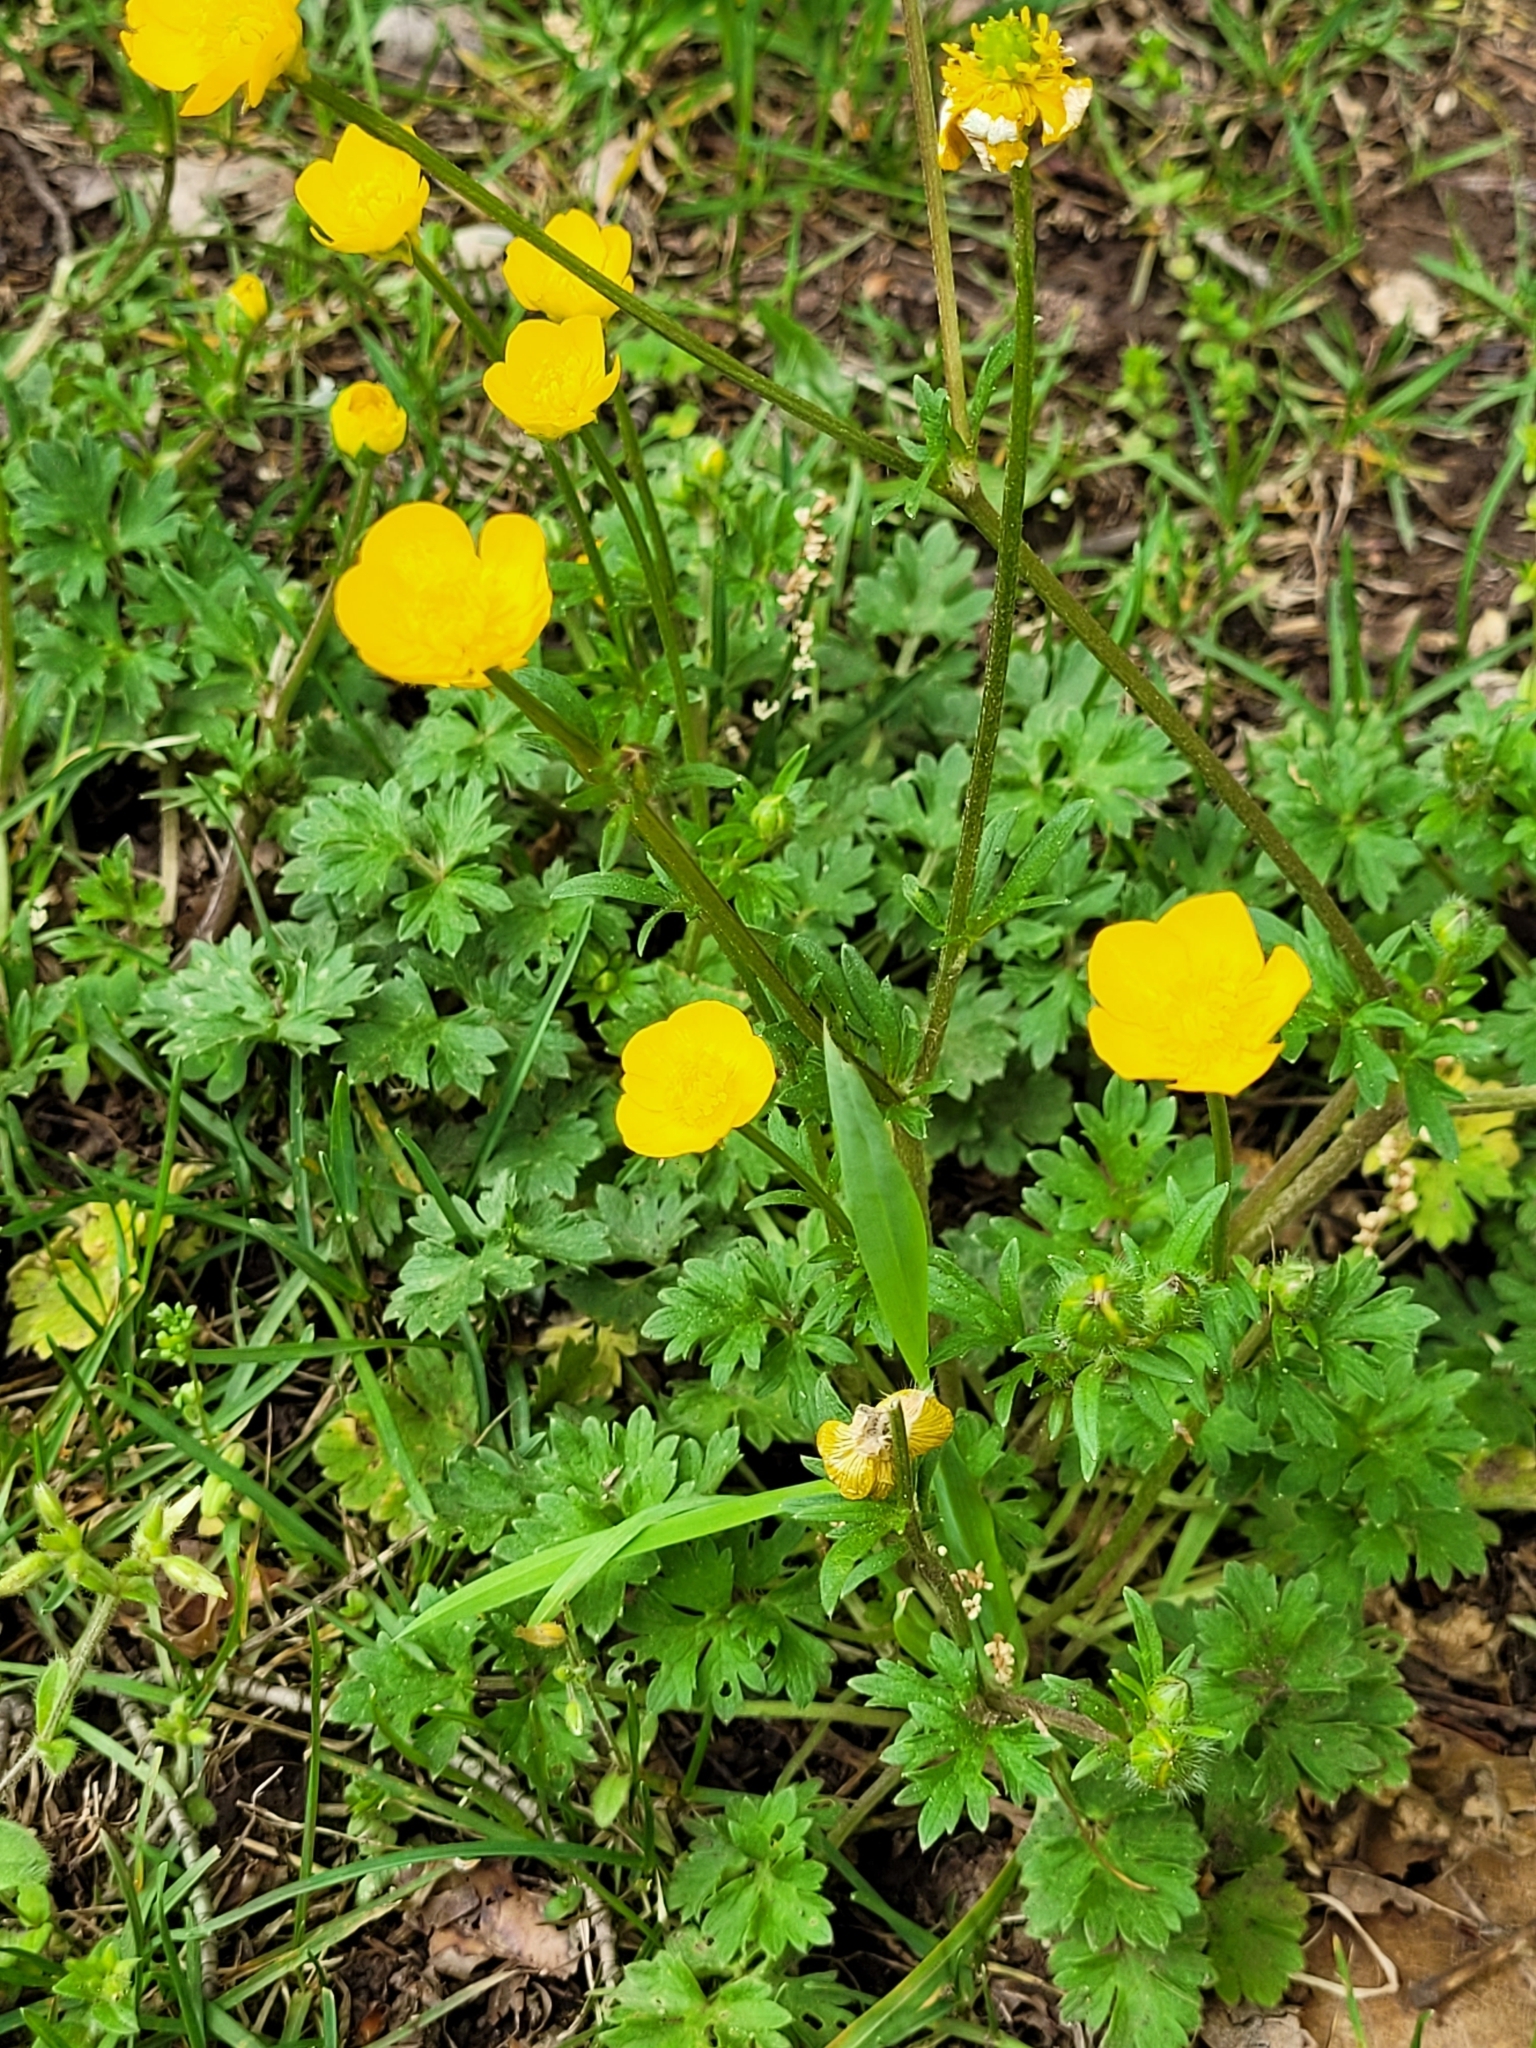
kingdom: Plantae
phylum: Tracheophyta
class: Magnoliopsida
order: Ranunculales
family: Ranunculaceae
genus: Ranunculus
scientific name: Ranunculus bulbosus
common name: Bulbous buttercup
